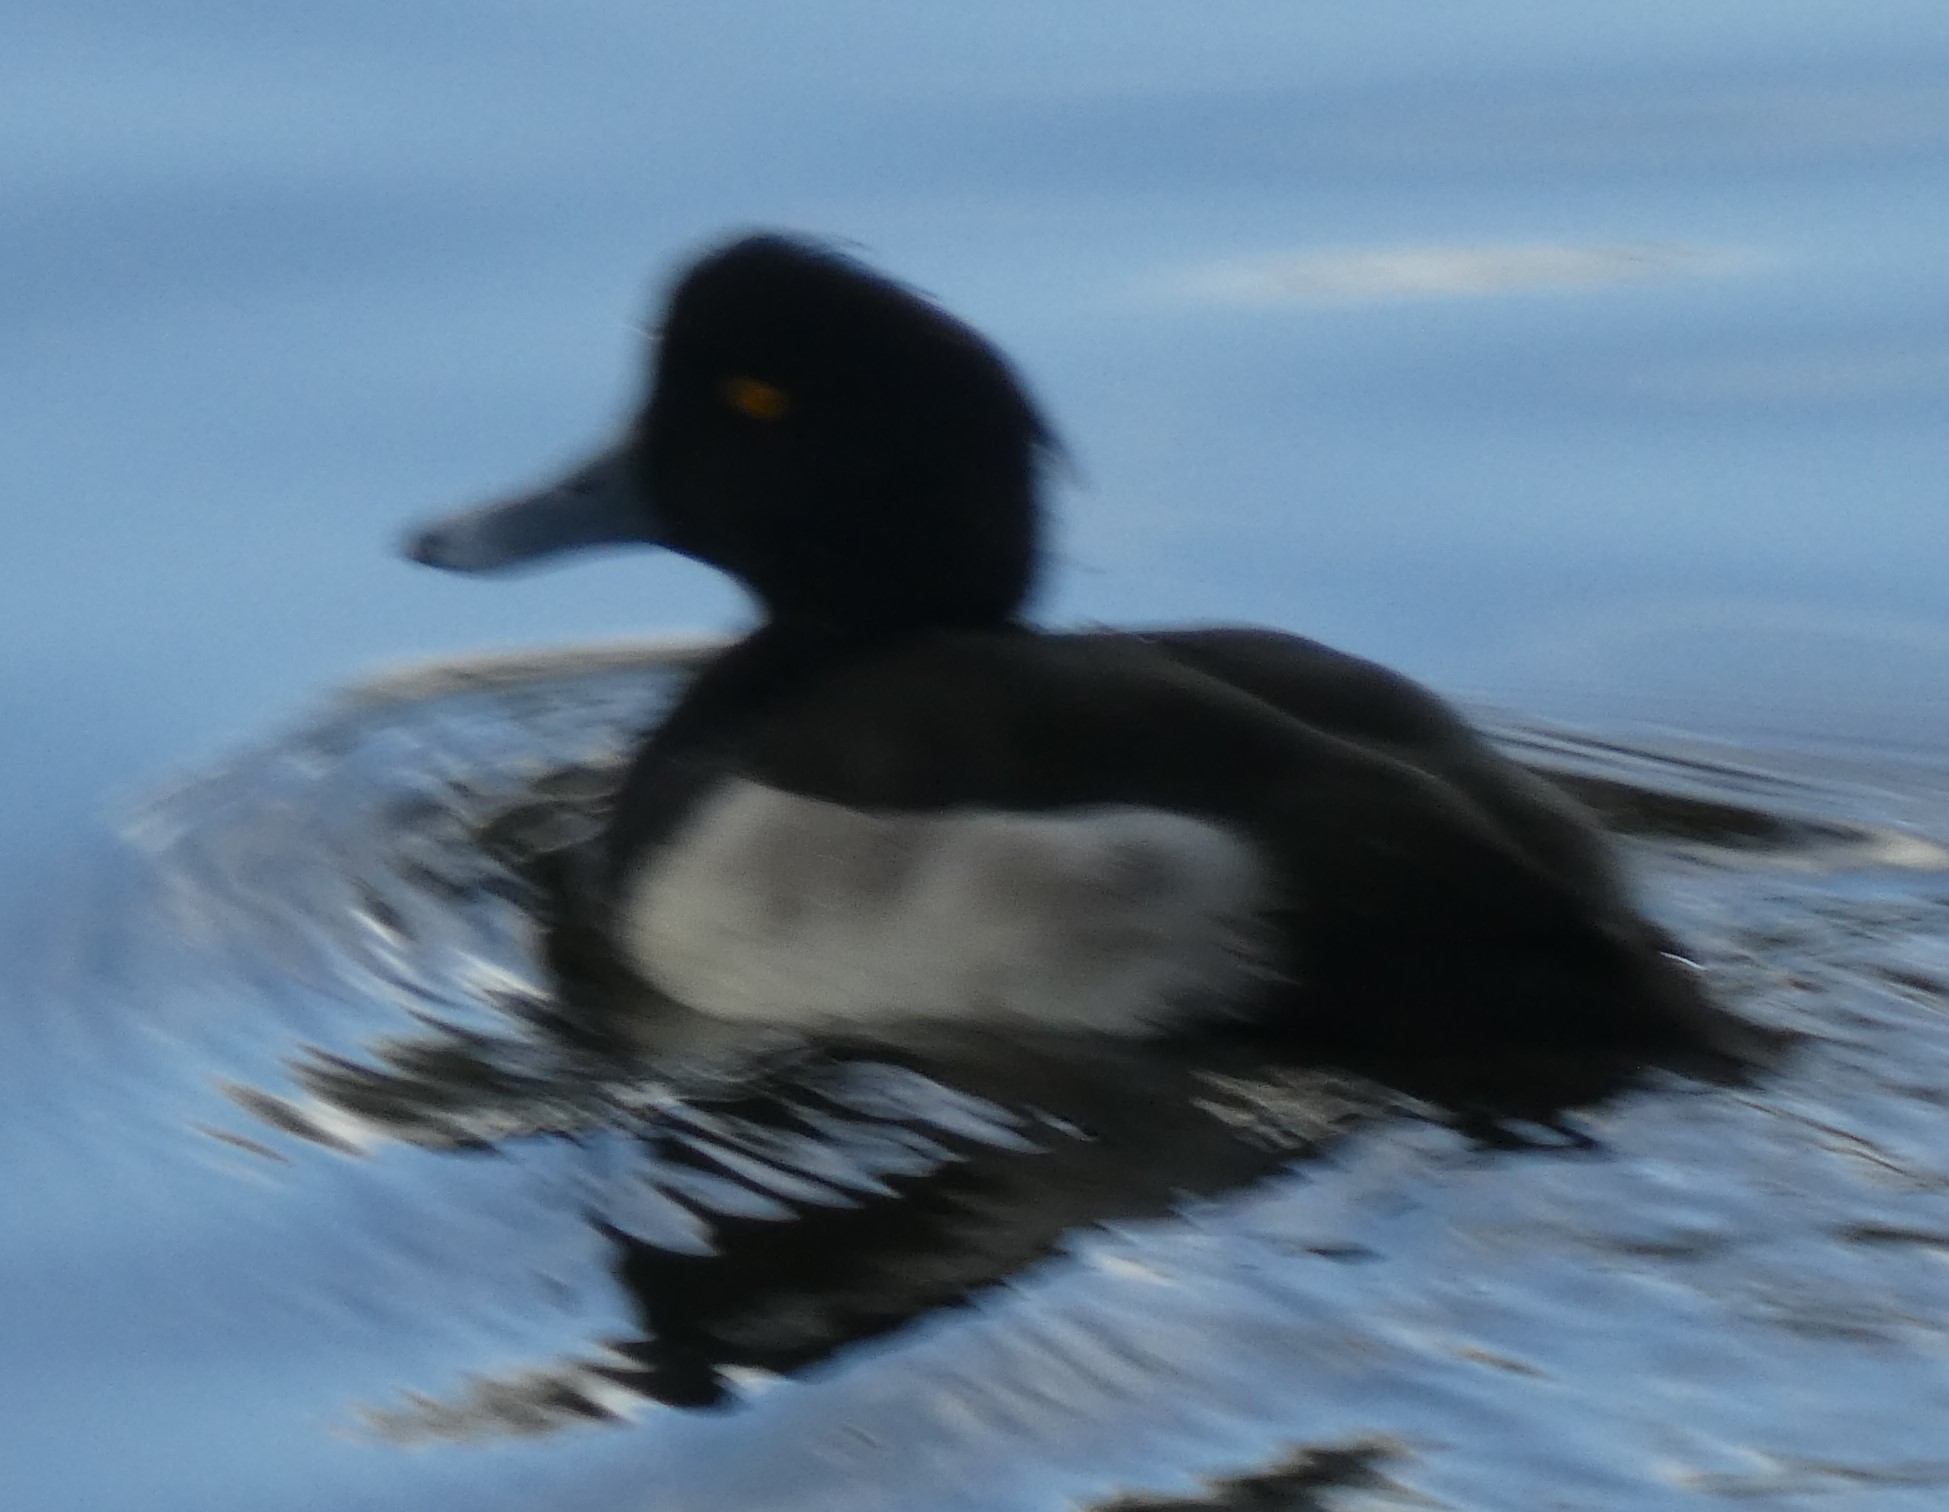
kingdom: Animalia
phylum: Chordata
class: Aves
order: Anseriformes
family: Anatidae
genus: Aythya
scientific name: Aythya fuligula
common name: Tufted duck
